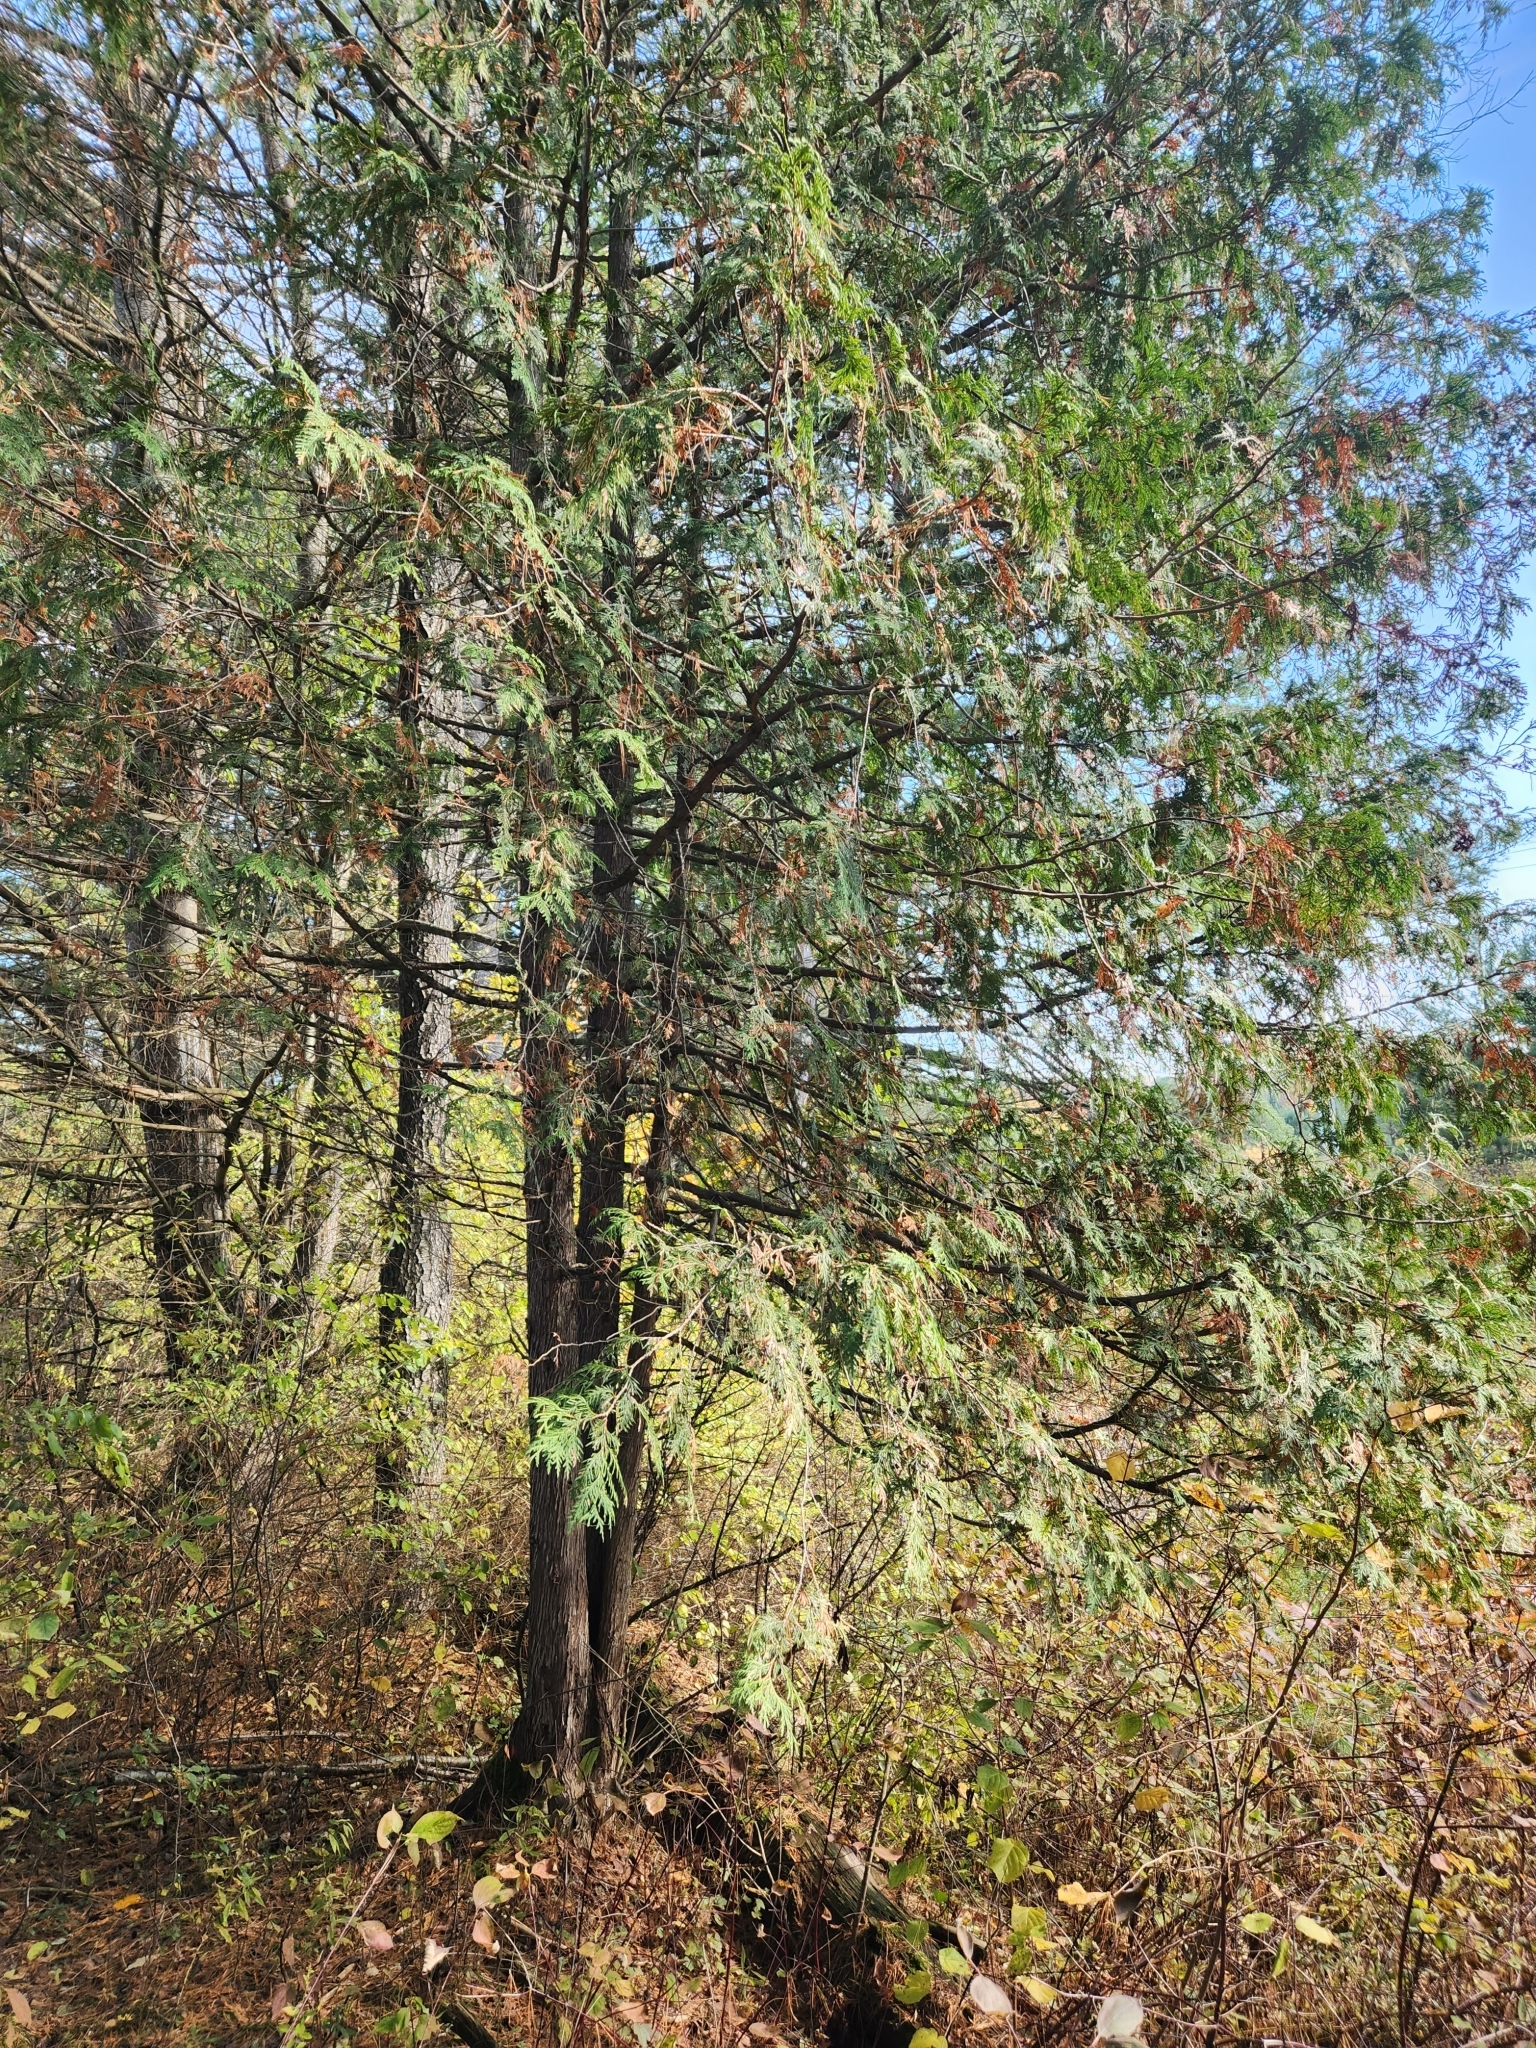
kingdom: Plantae
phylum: Tracheophyta
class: Pinopsida
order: Pinales
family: Cupressaceae
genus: Thuja
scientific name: Thuja occidentalis
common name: Northern white-cedar
